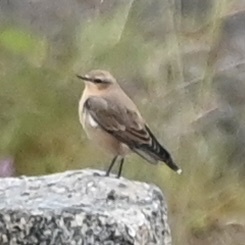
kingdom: Animalia
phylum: Chordata
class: Aves
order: Passeriformes
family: Muscicapidae
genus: Oenanthe
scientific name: Oenanthe oenanthe
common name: Northern wheatear
